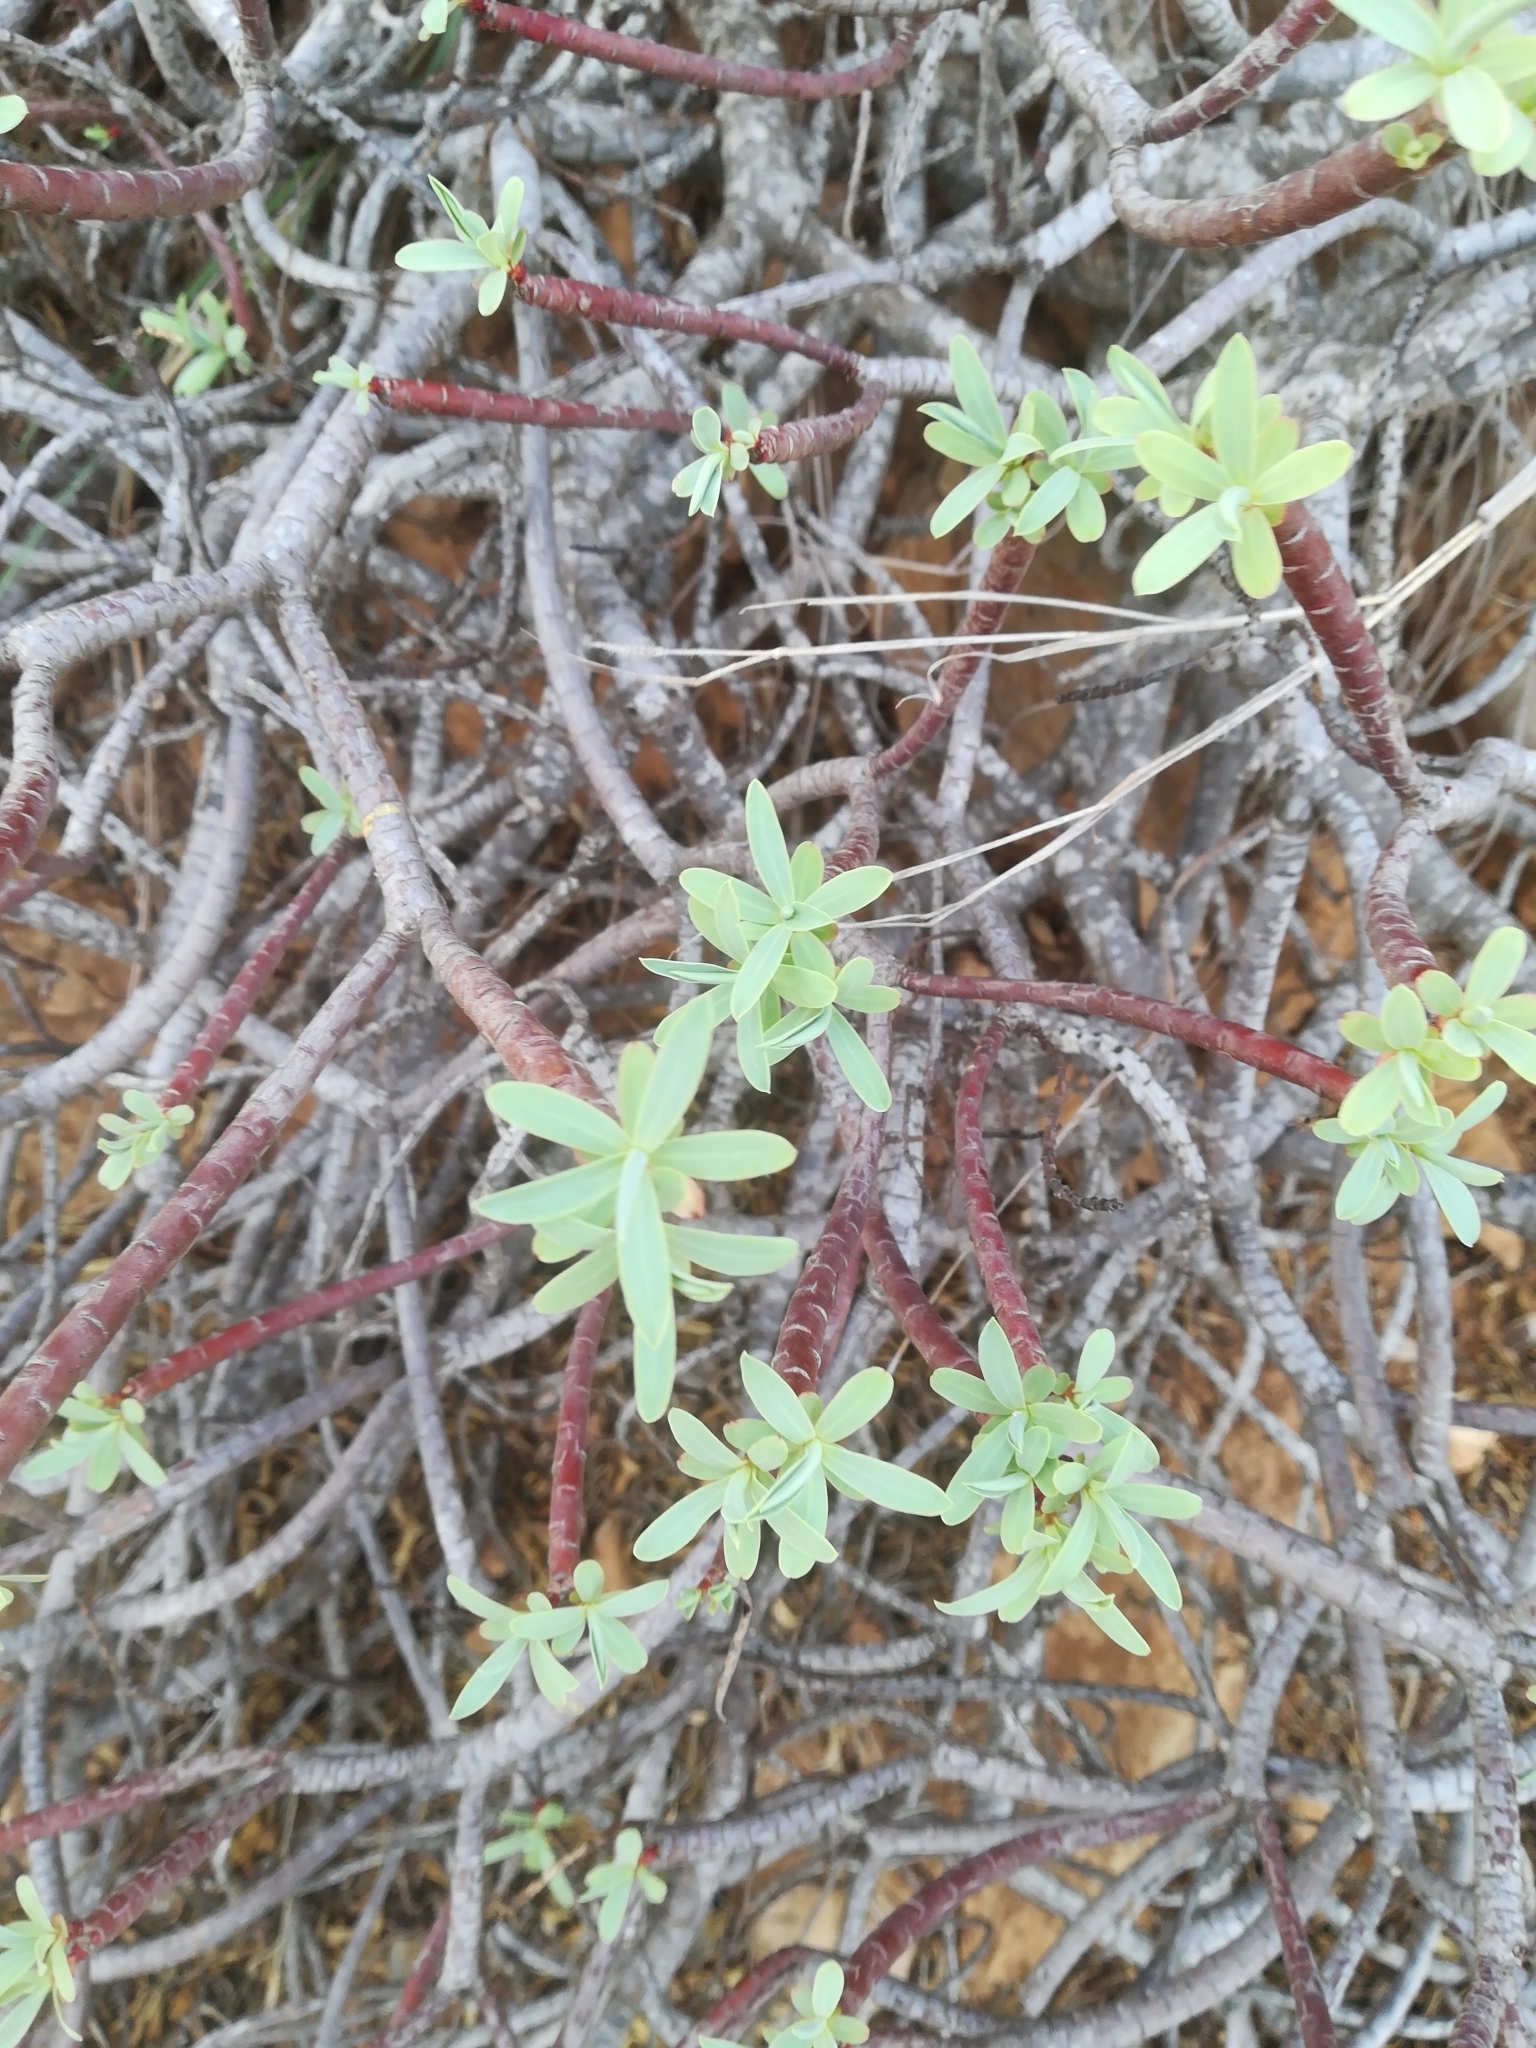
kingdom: Plantae
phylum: Tracheophyta
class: Magnoliopsida
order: Malpighiales
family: Euphorbiaceae
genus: Euphorbia
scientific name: Euphorbia dendroides
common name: Tree spurge
